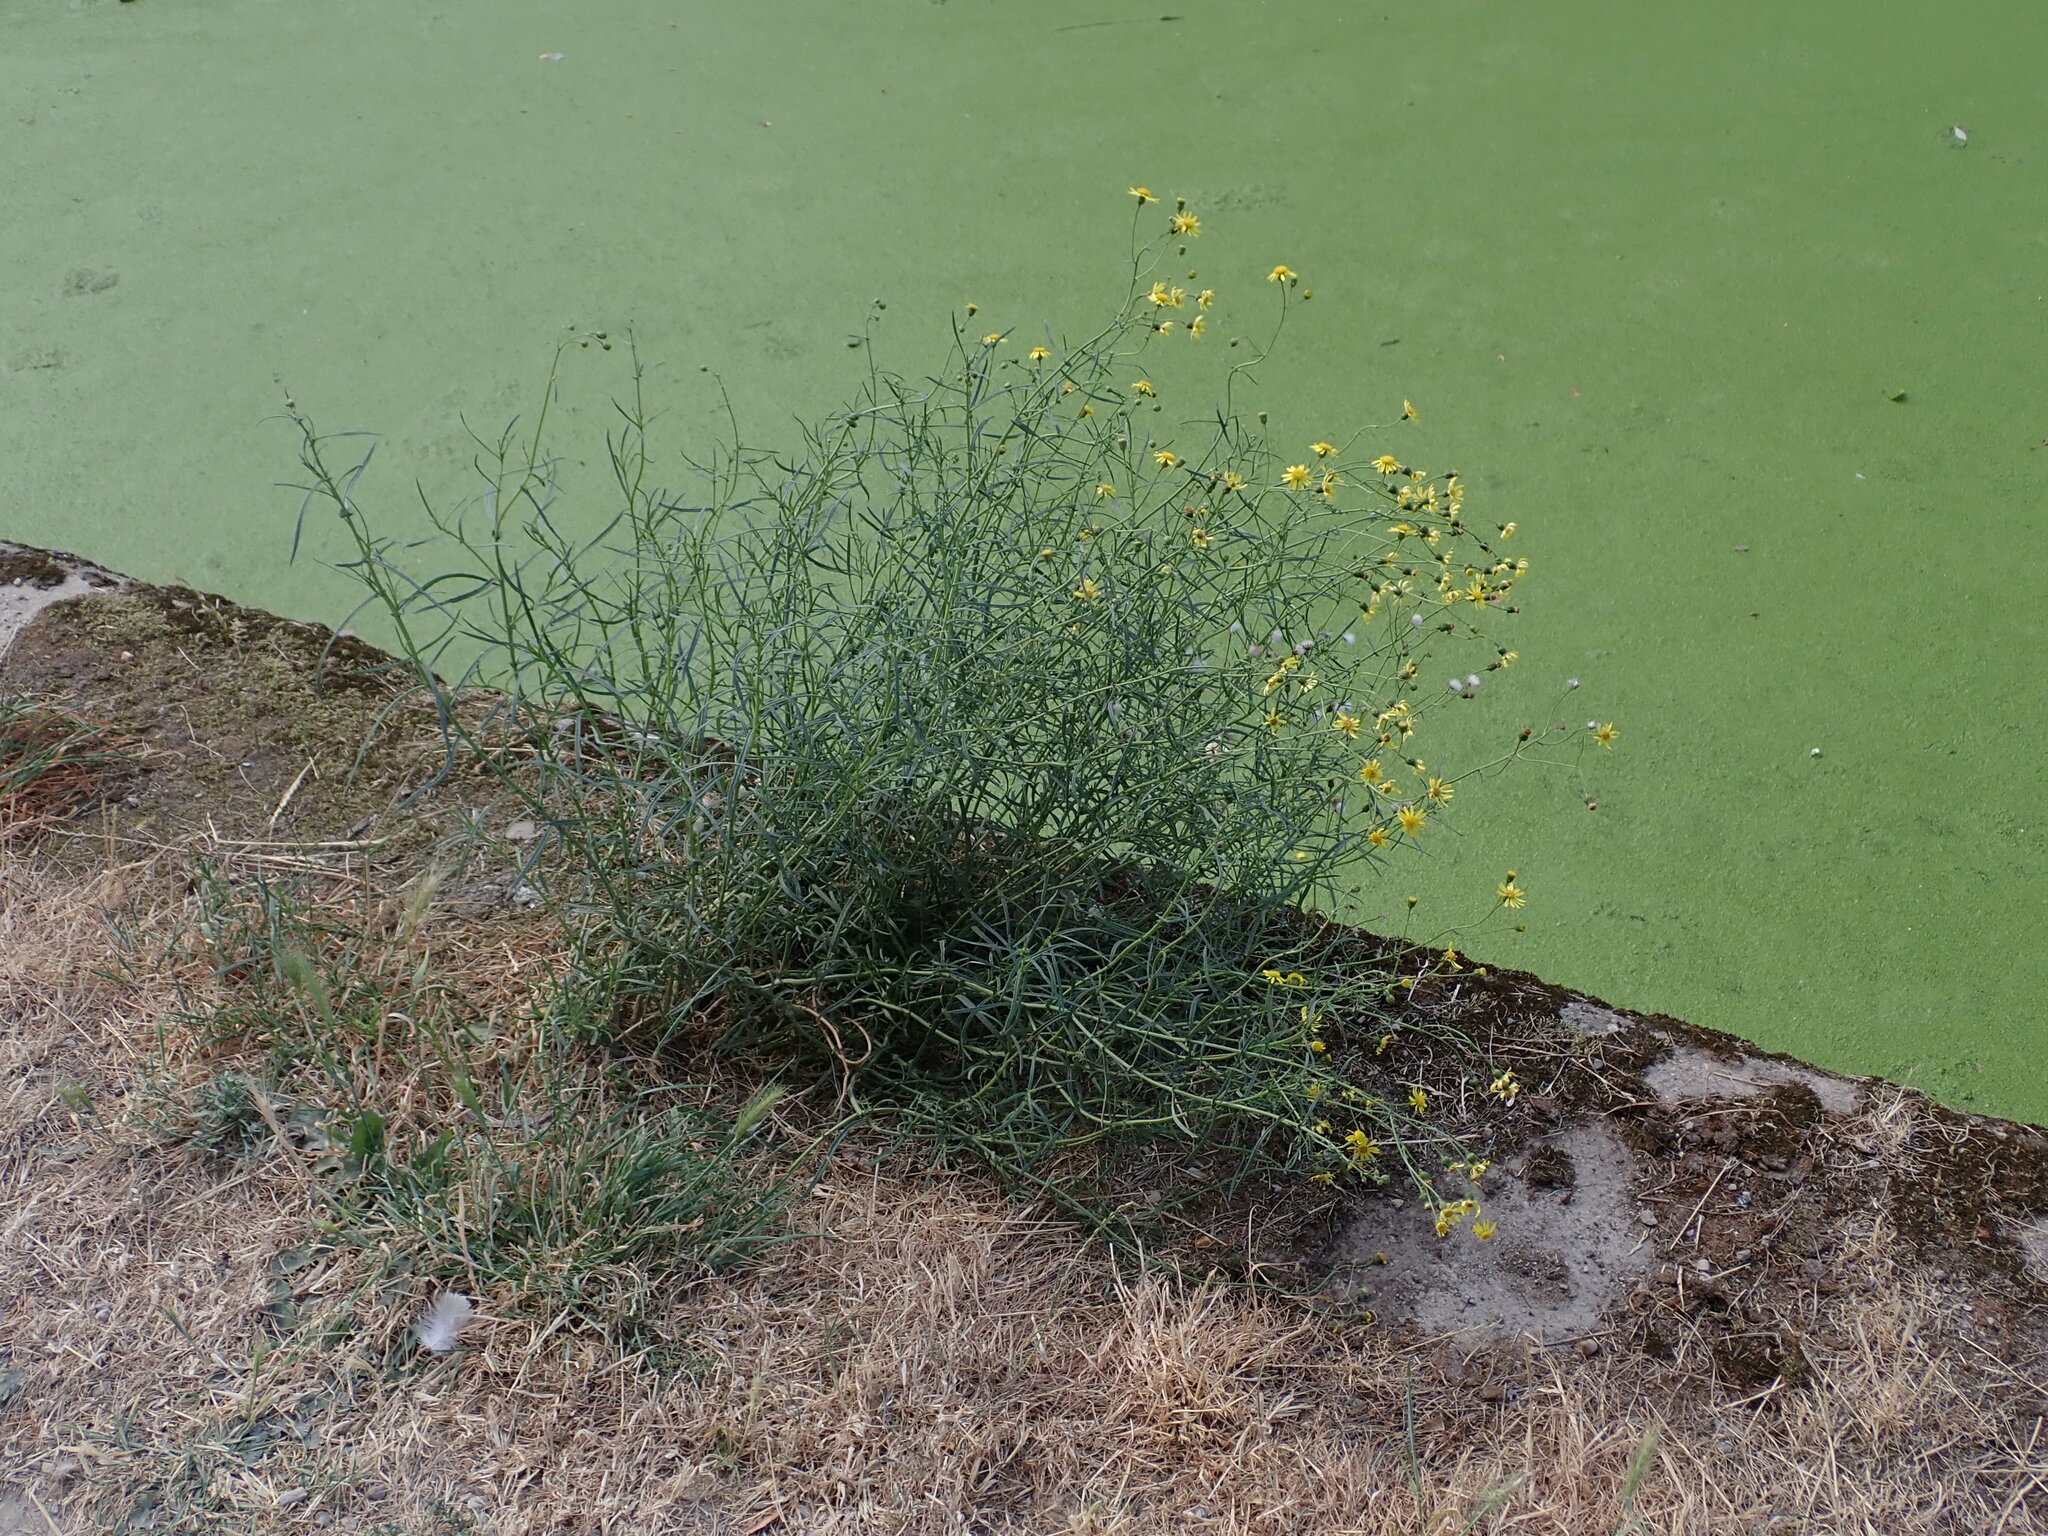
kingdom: Plantae
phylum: Tracheophyta
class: Magnoliopsida
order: Asterales
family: Asteraceae
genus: Senecio
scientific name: Senecio inaequidens
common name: Narrow-leaved ragwort
